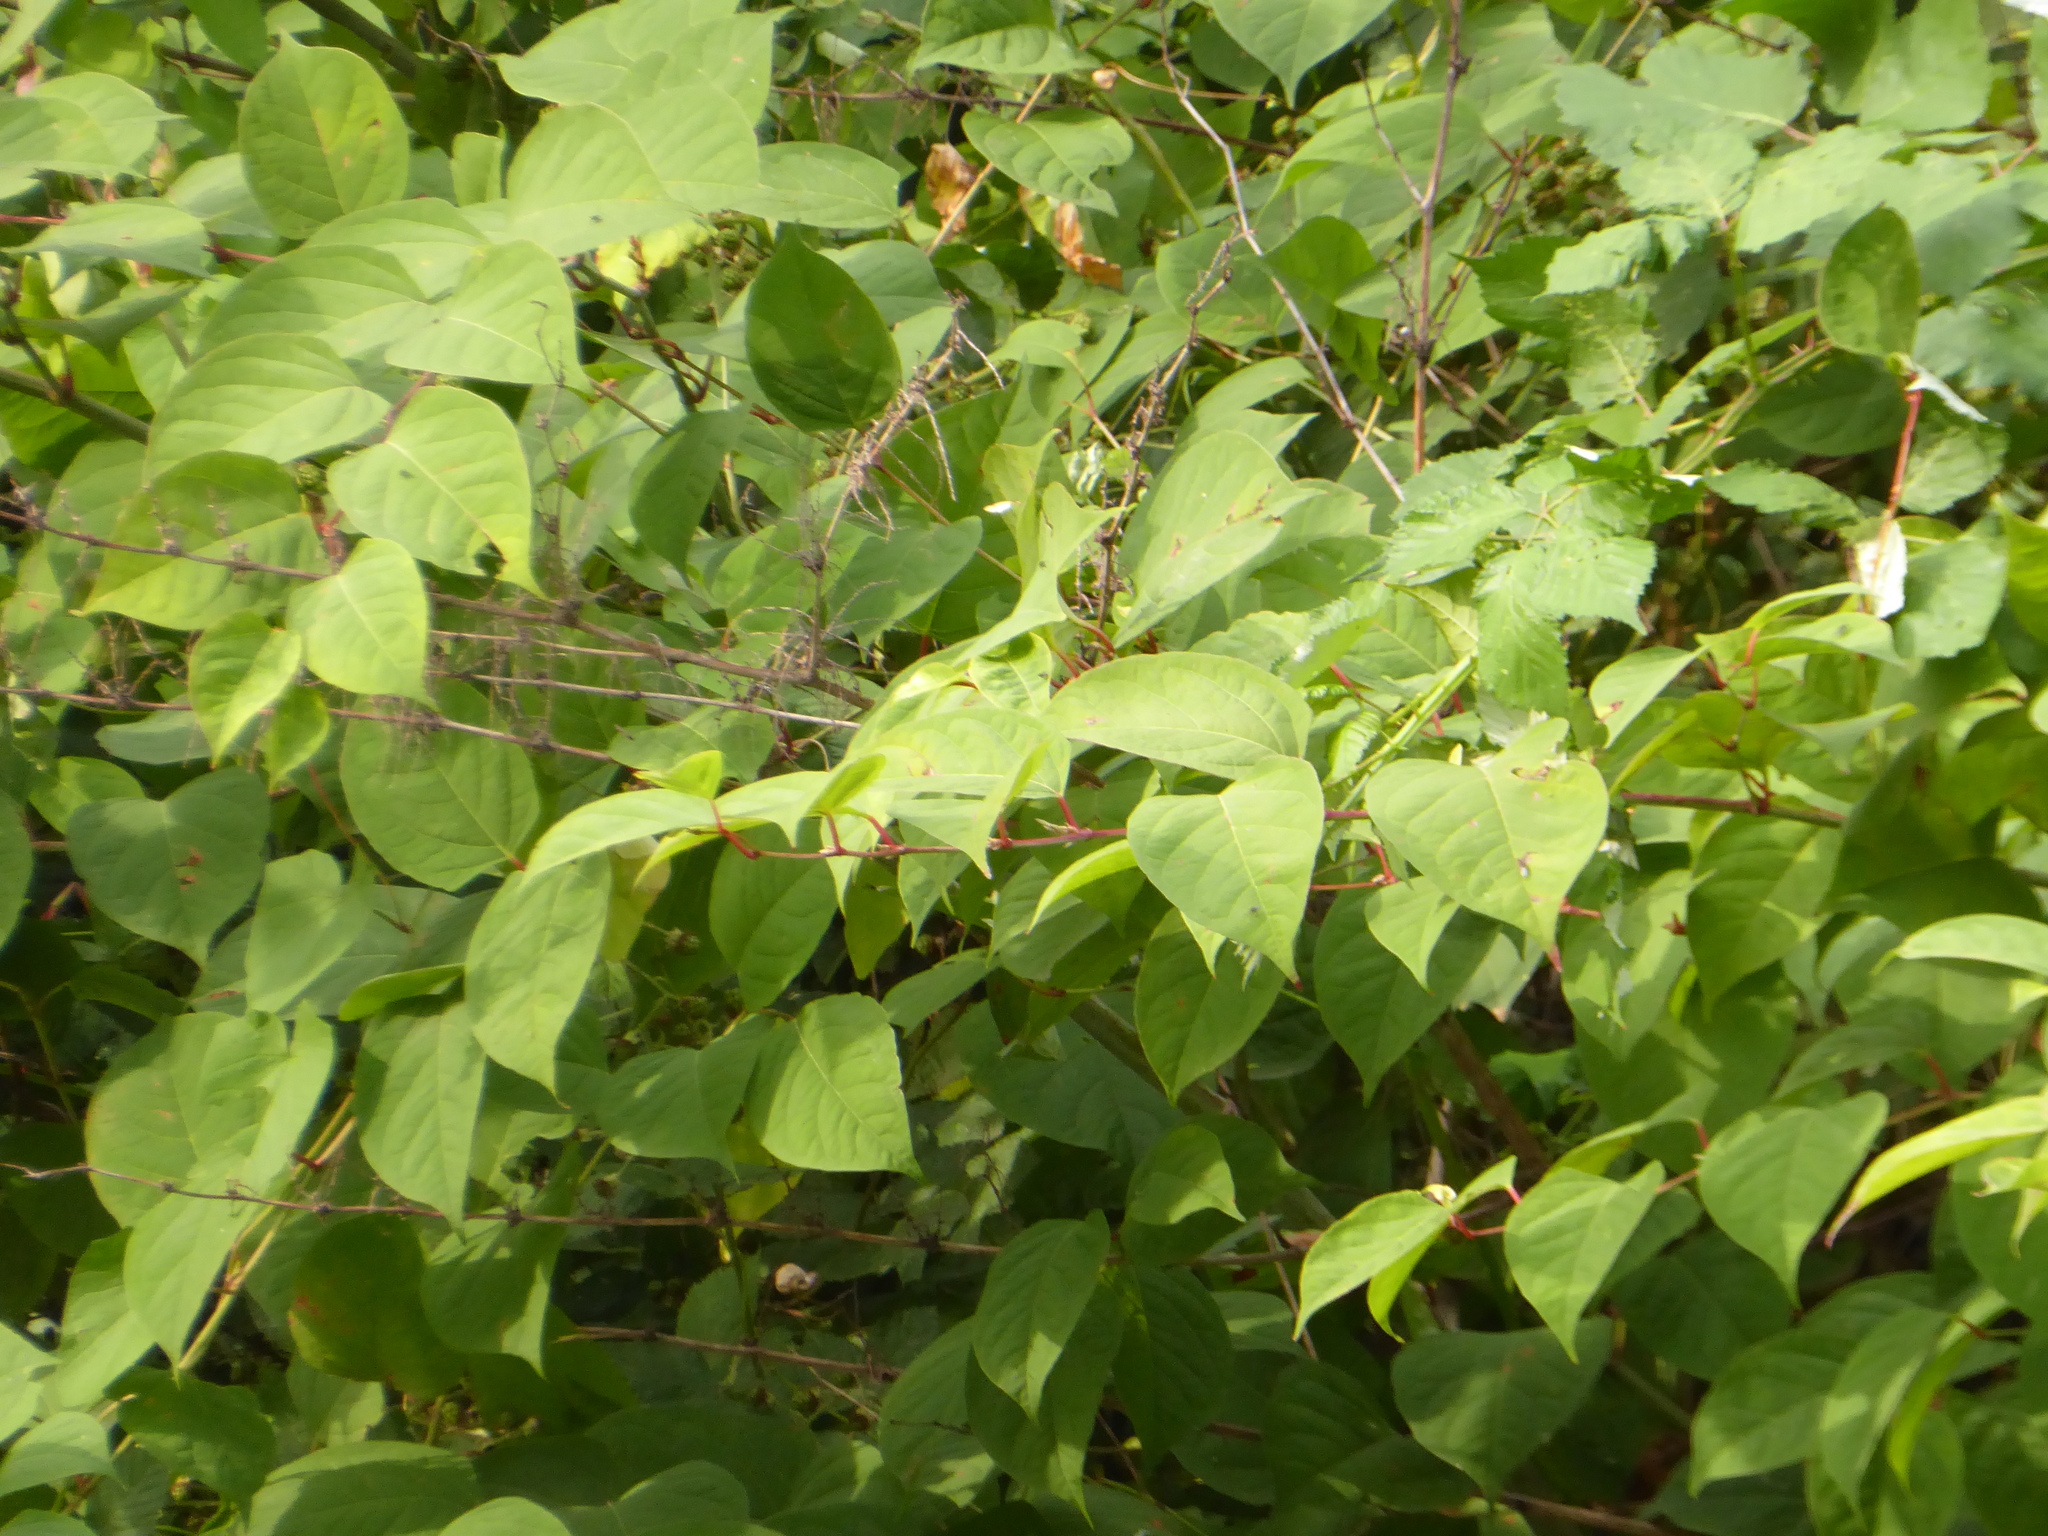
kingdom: Plantae
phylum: Tracheophyta
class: Magnoliopsida
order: Caryophyllales
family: Polygonaceae
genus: Reynoutria
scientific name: Reynoutria japonica
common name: Japanese knotweed
